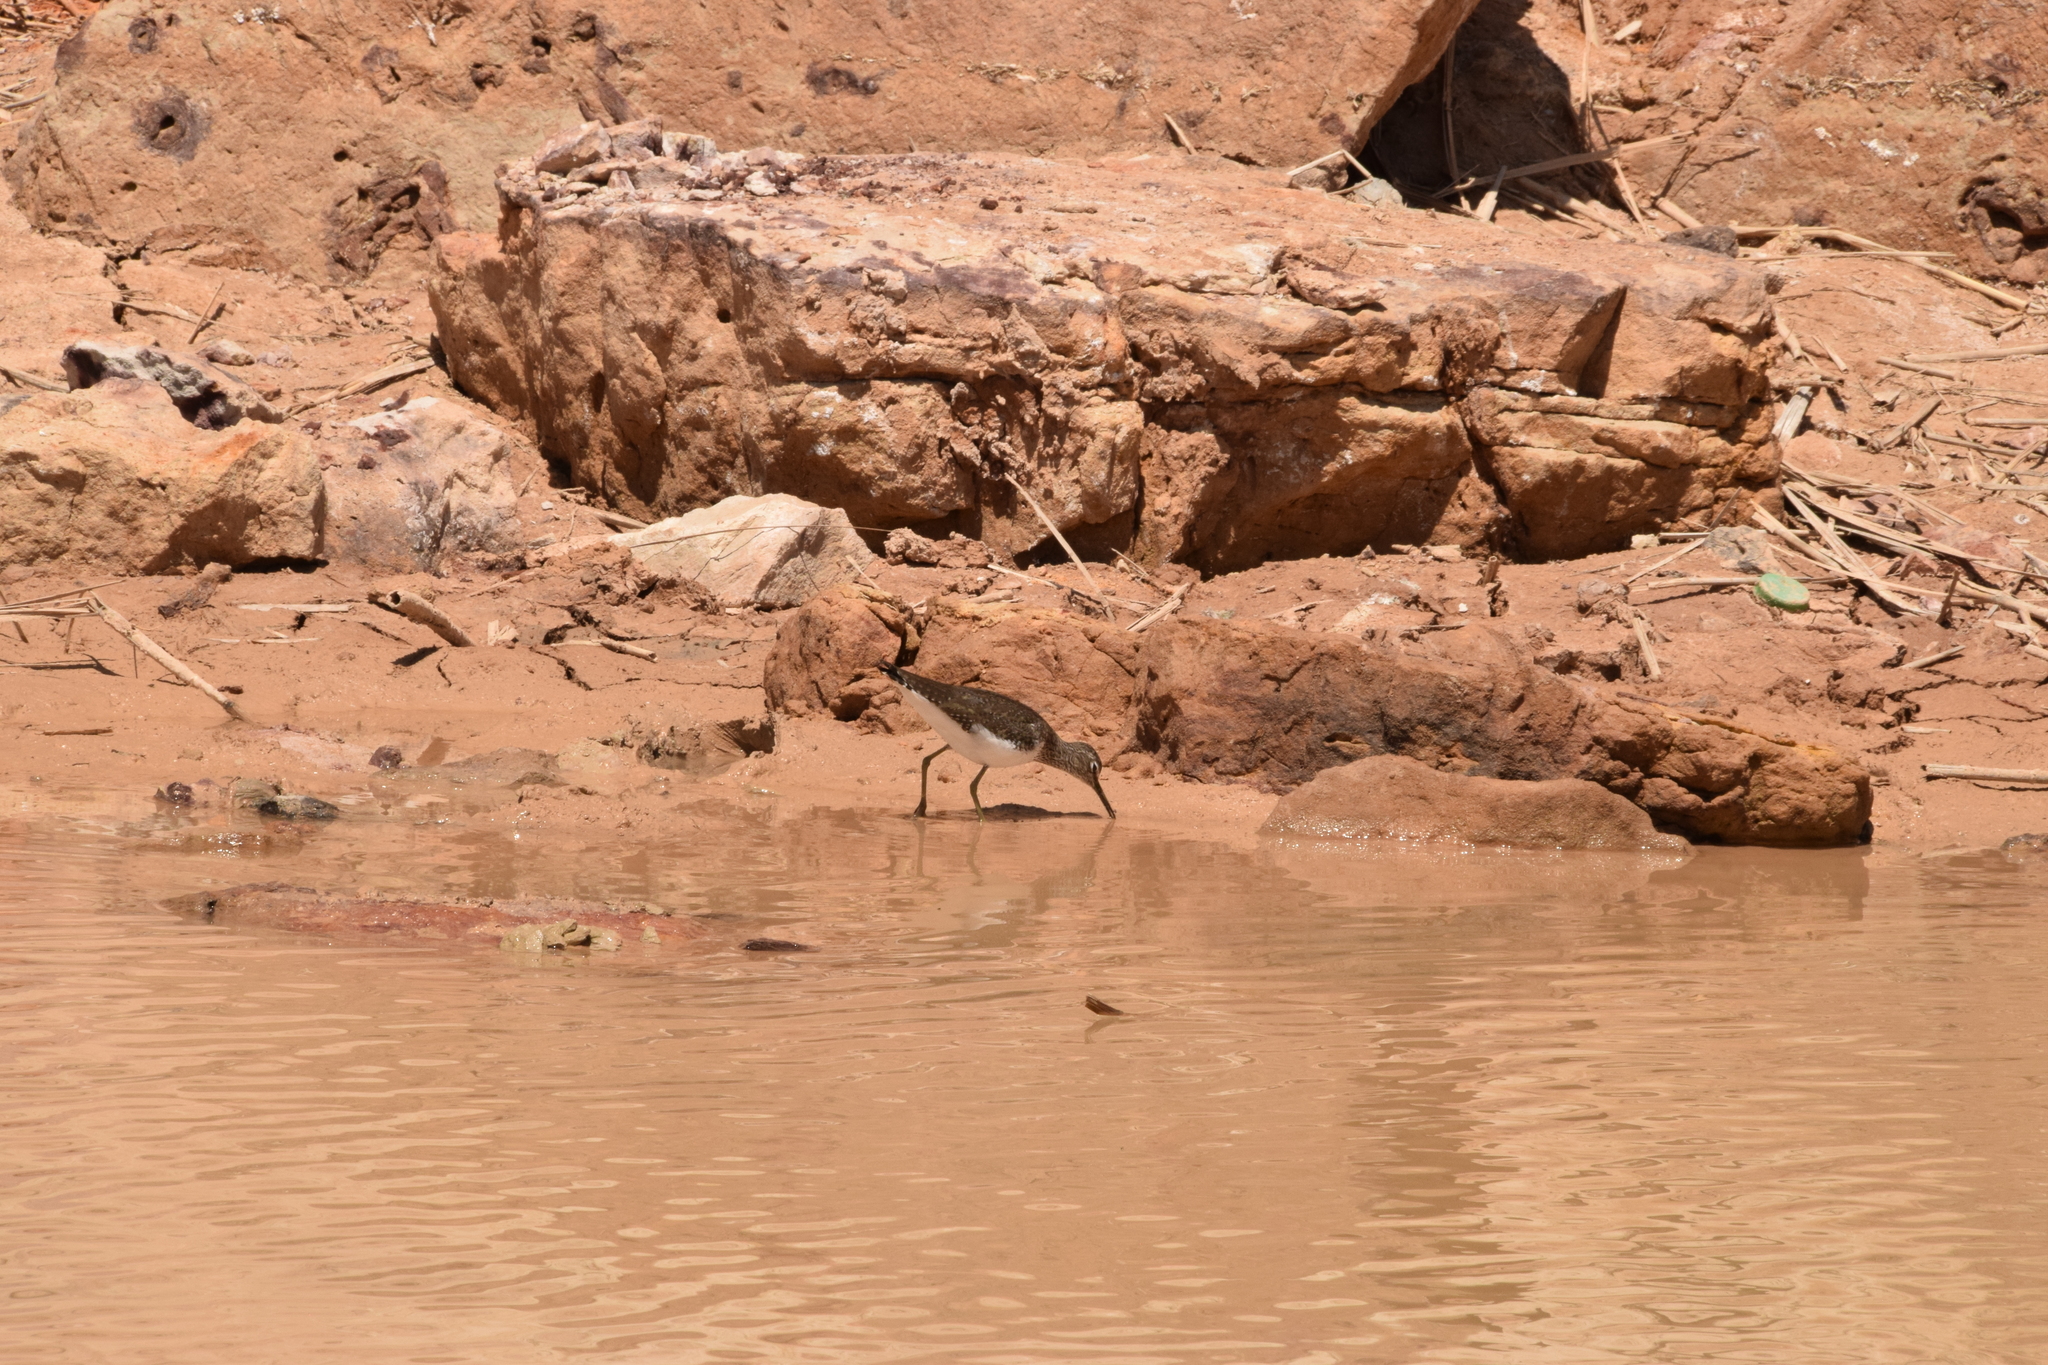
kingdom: Animalia
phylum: Chordata
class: Aves
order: Charadriiformes
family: Scolopacidae
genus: Tringa
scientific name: Tringa ochropus
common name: Green sandpiper
